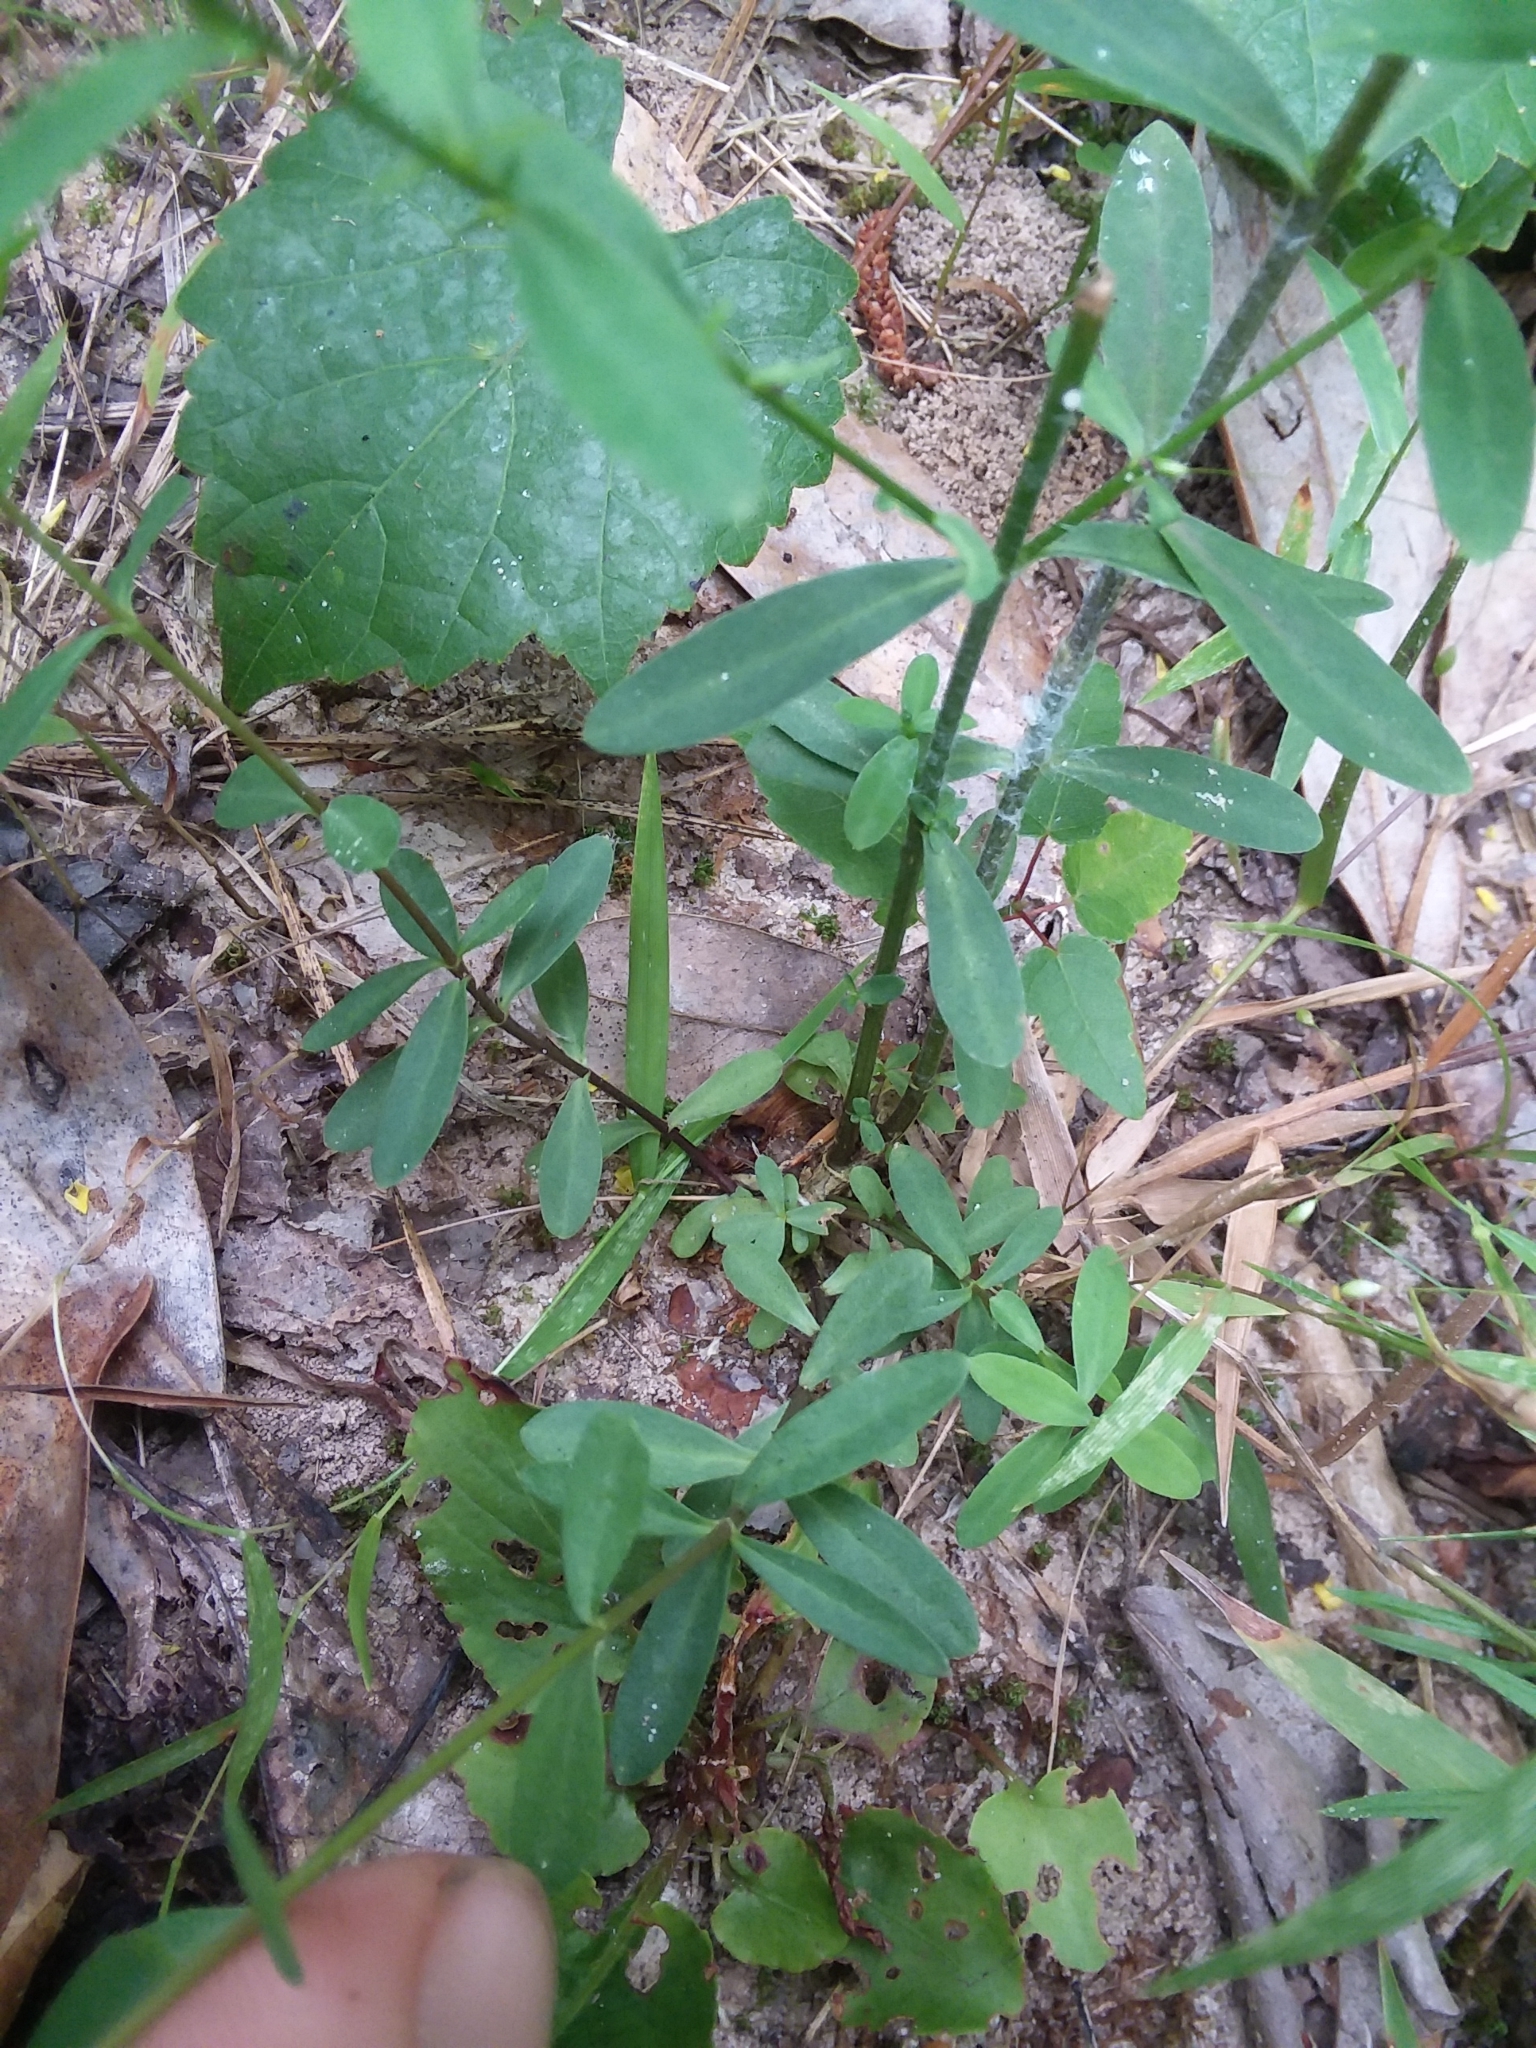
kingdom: Plantae
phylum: Tracheophyta
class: Magnoliopsida
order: Malpighiales
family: Linaceae
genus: Linum
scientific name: Linum striatum
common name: Ridged yellow flax
